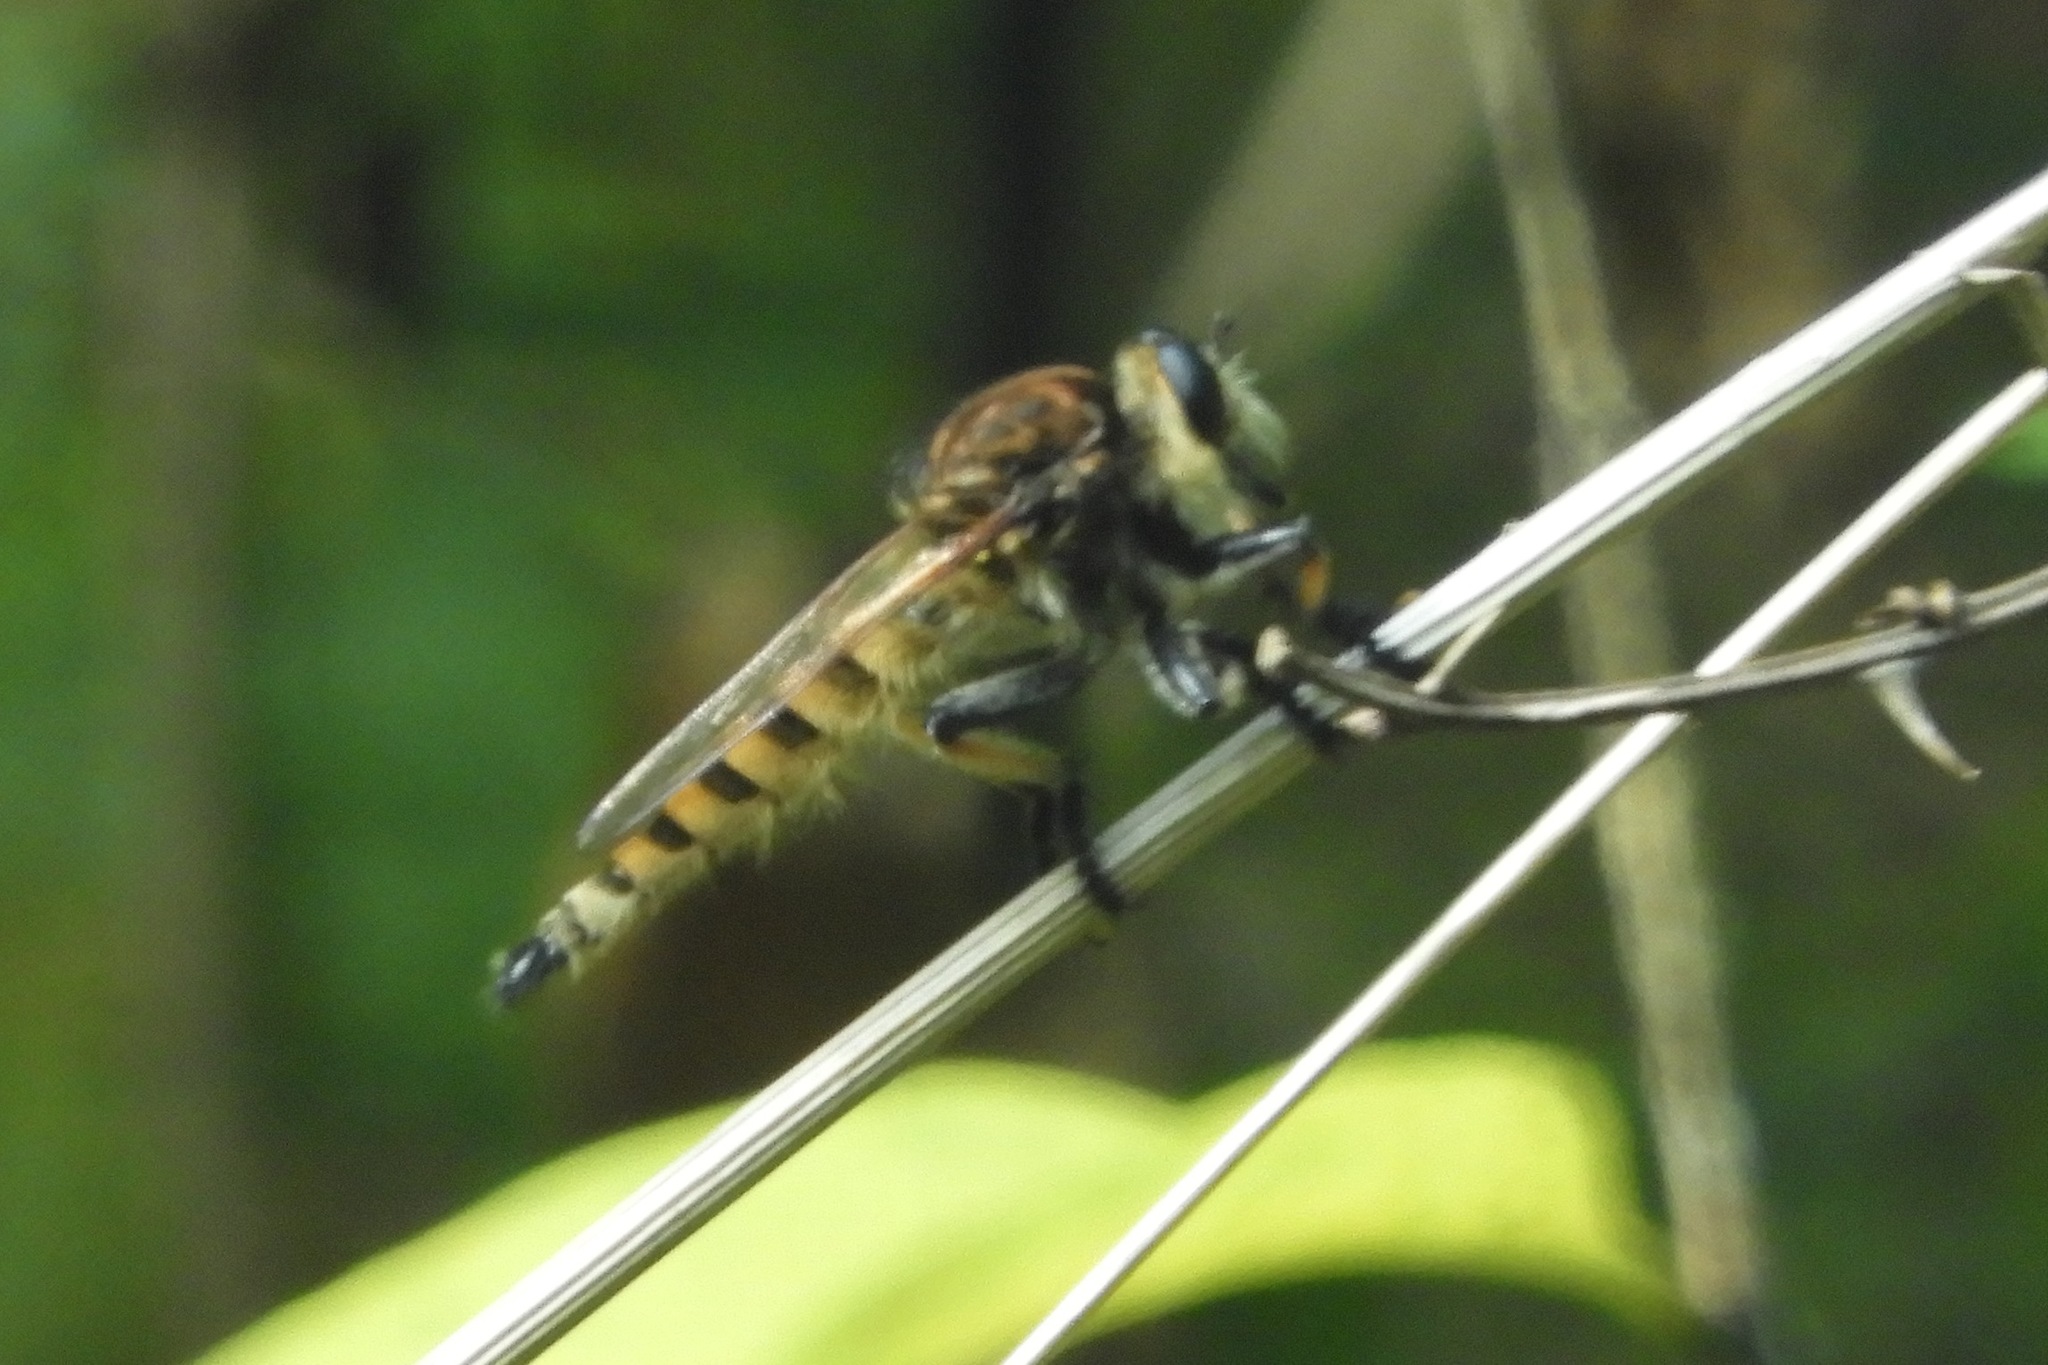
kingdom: Animalia
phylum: Arthropoda
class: Insecta
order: Diptera
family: Asilidae
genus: Promachus
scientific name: Promachus rufipes
